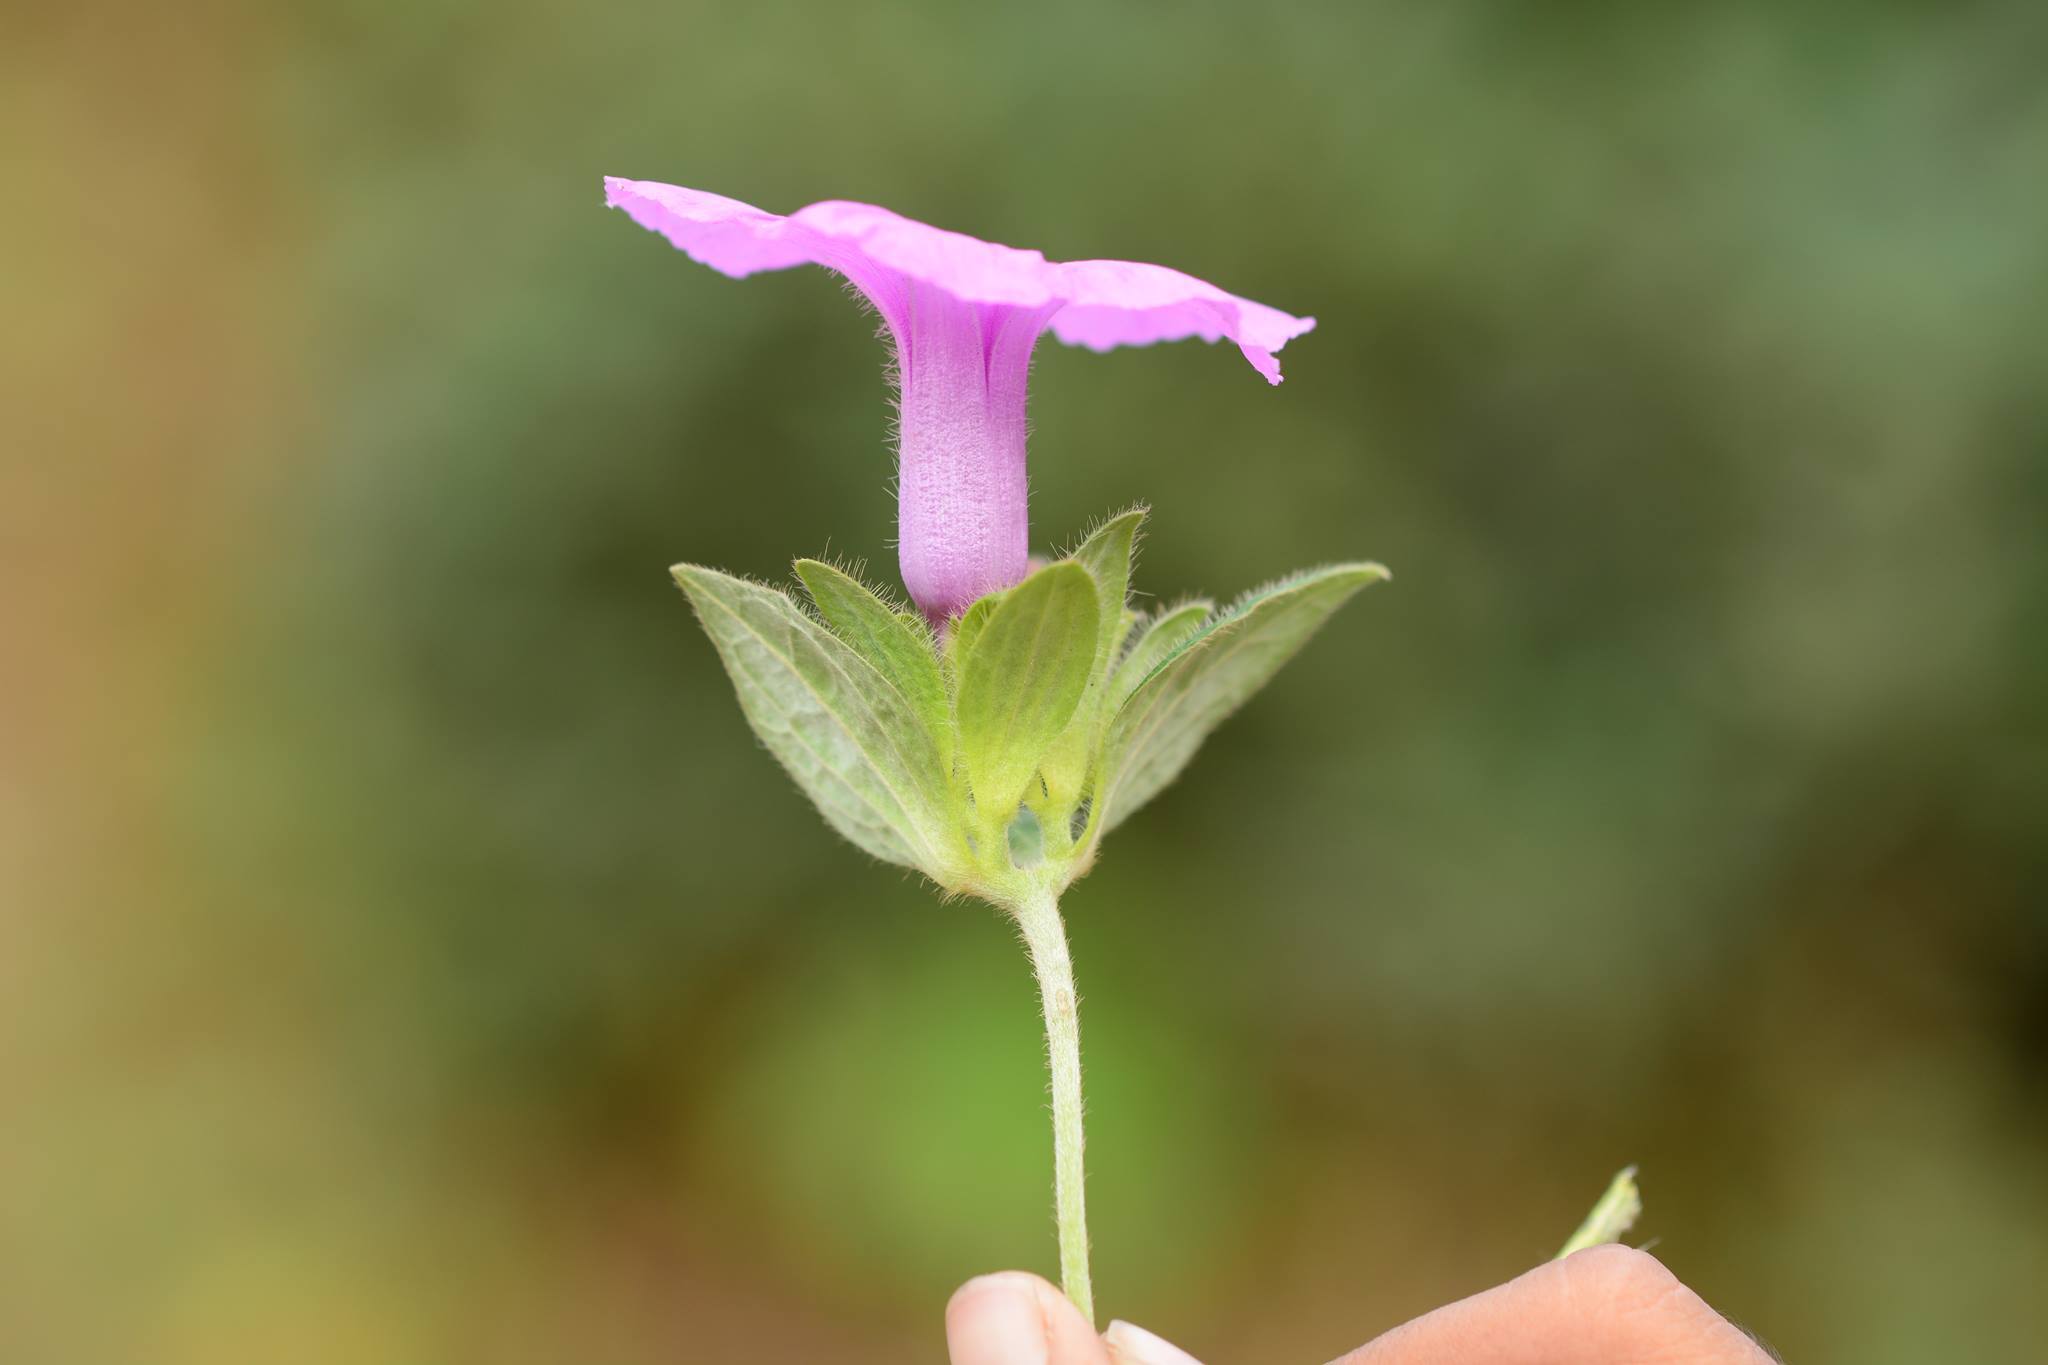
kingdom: Plantae
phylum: Tracheophyta
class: Magnoliopsida
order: Solanales
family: Convolvulaceae
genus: Argyreia
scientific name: Argyreia sericea
